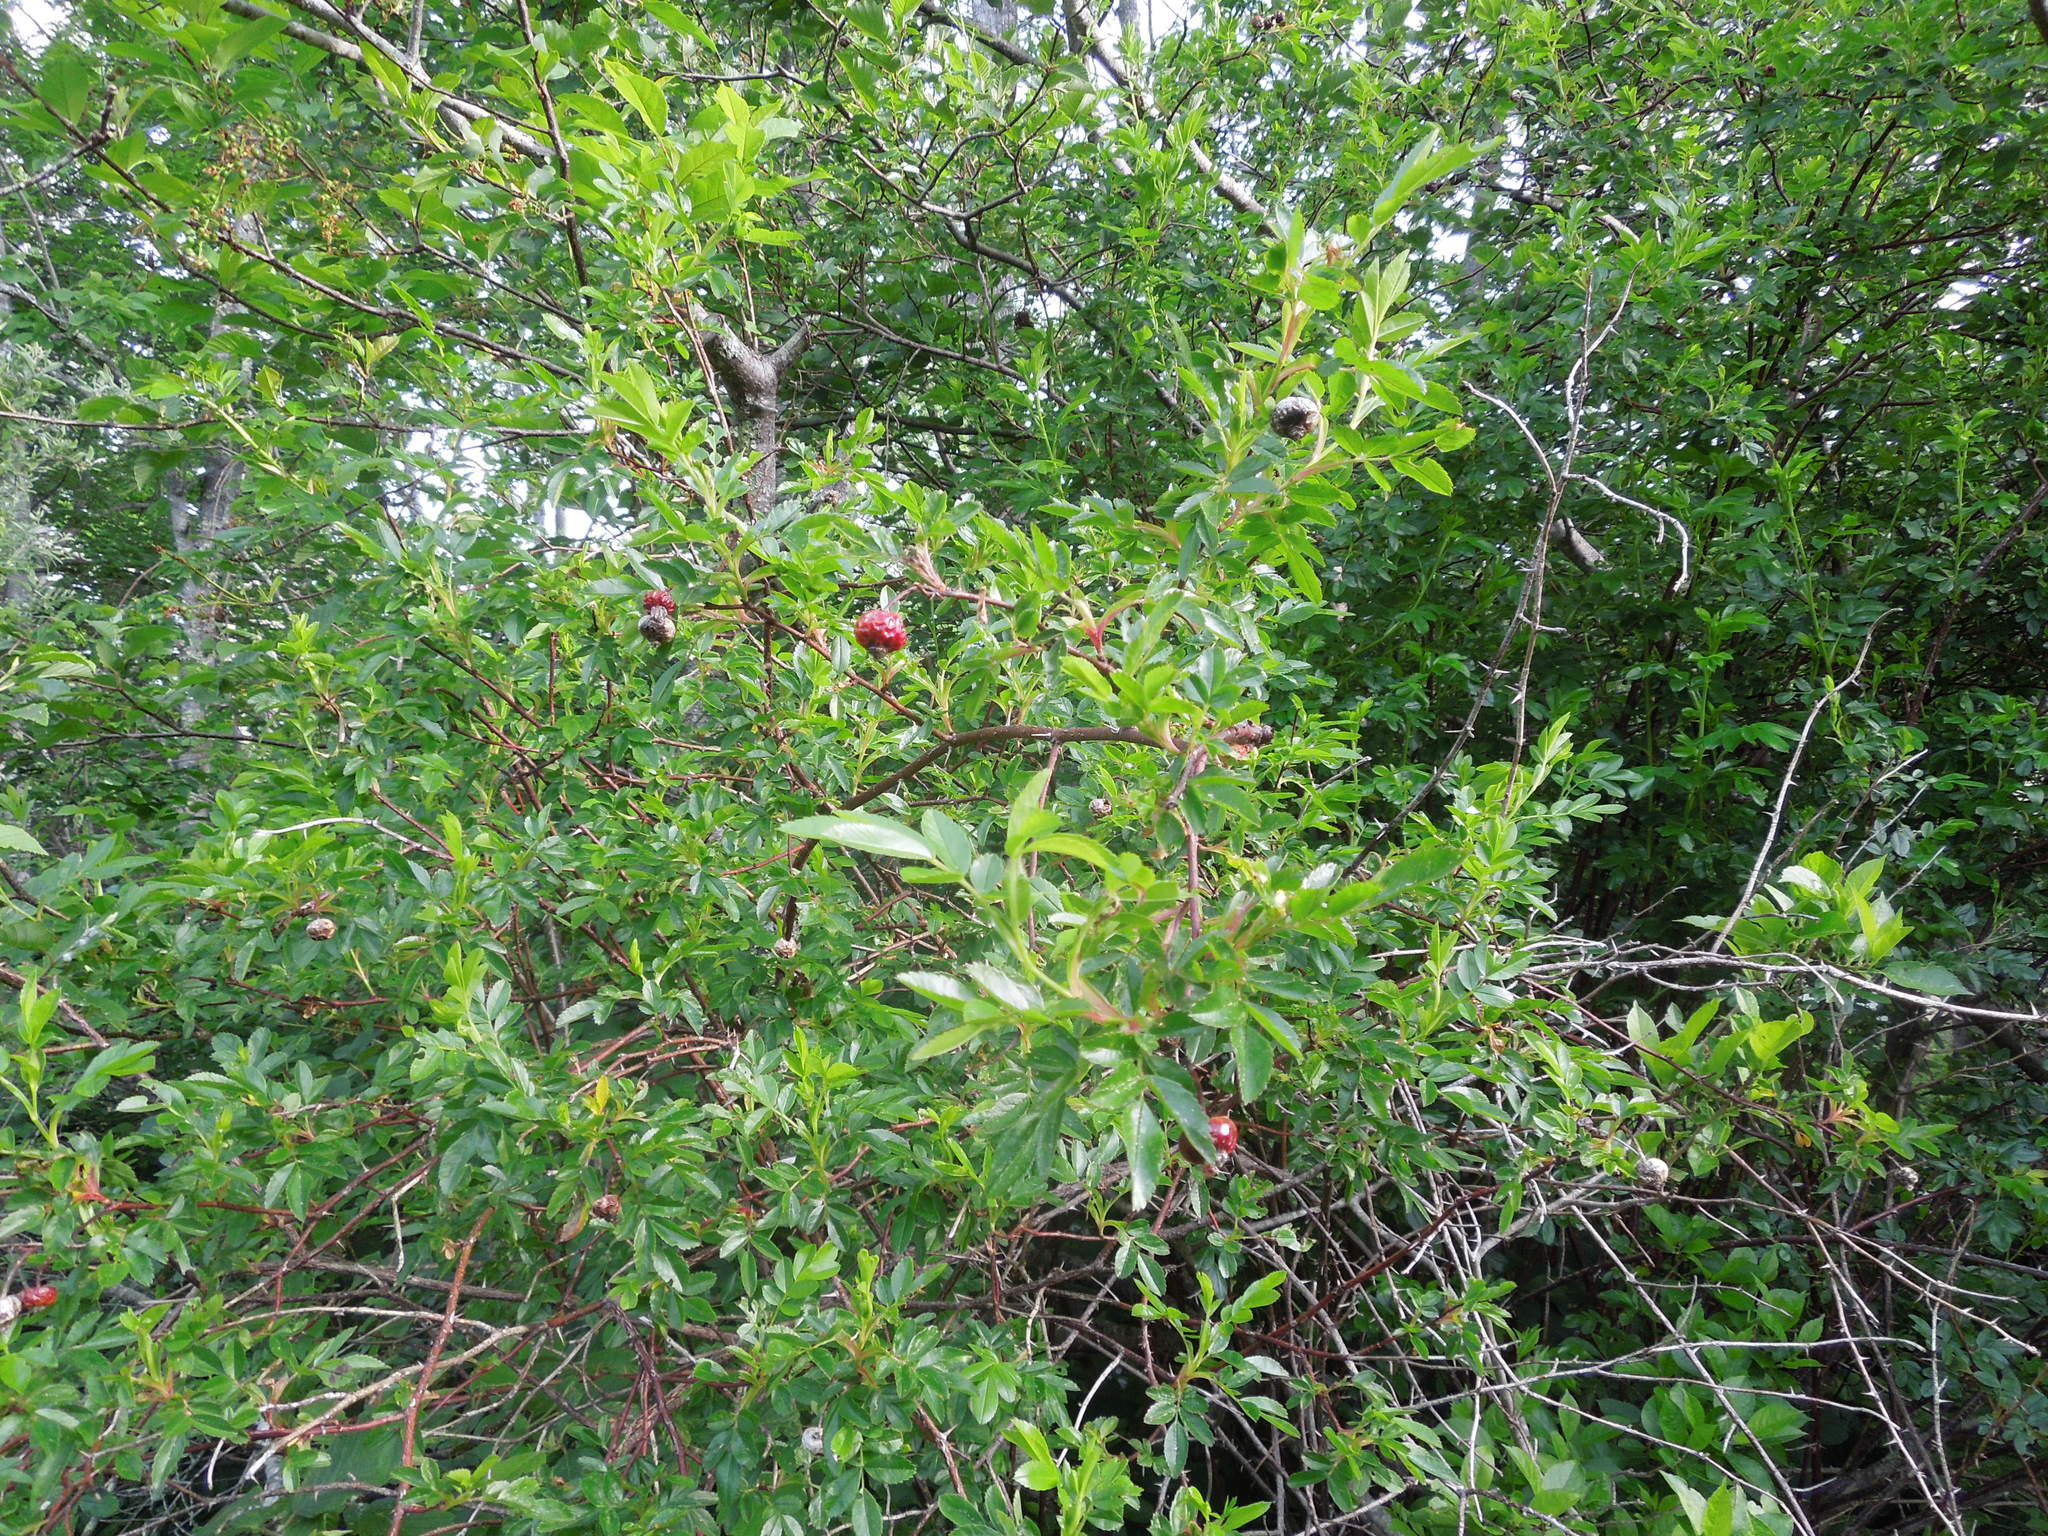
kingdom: Plantae
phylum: Tracheophyta
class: Magnoliopsida
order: Rosales
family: Rosaceae
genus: Rosa
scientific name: Rosa virginiana
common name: Virginian rose
